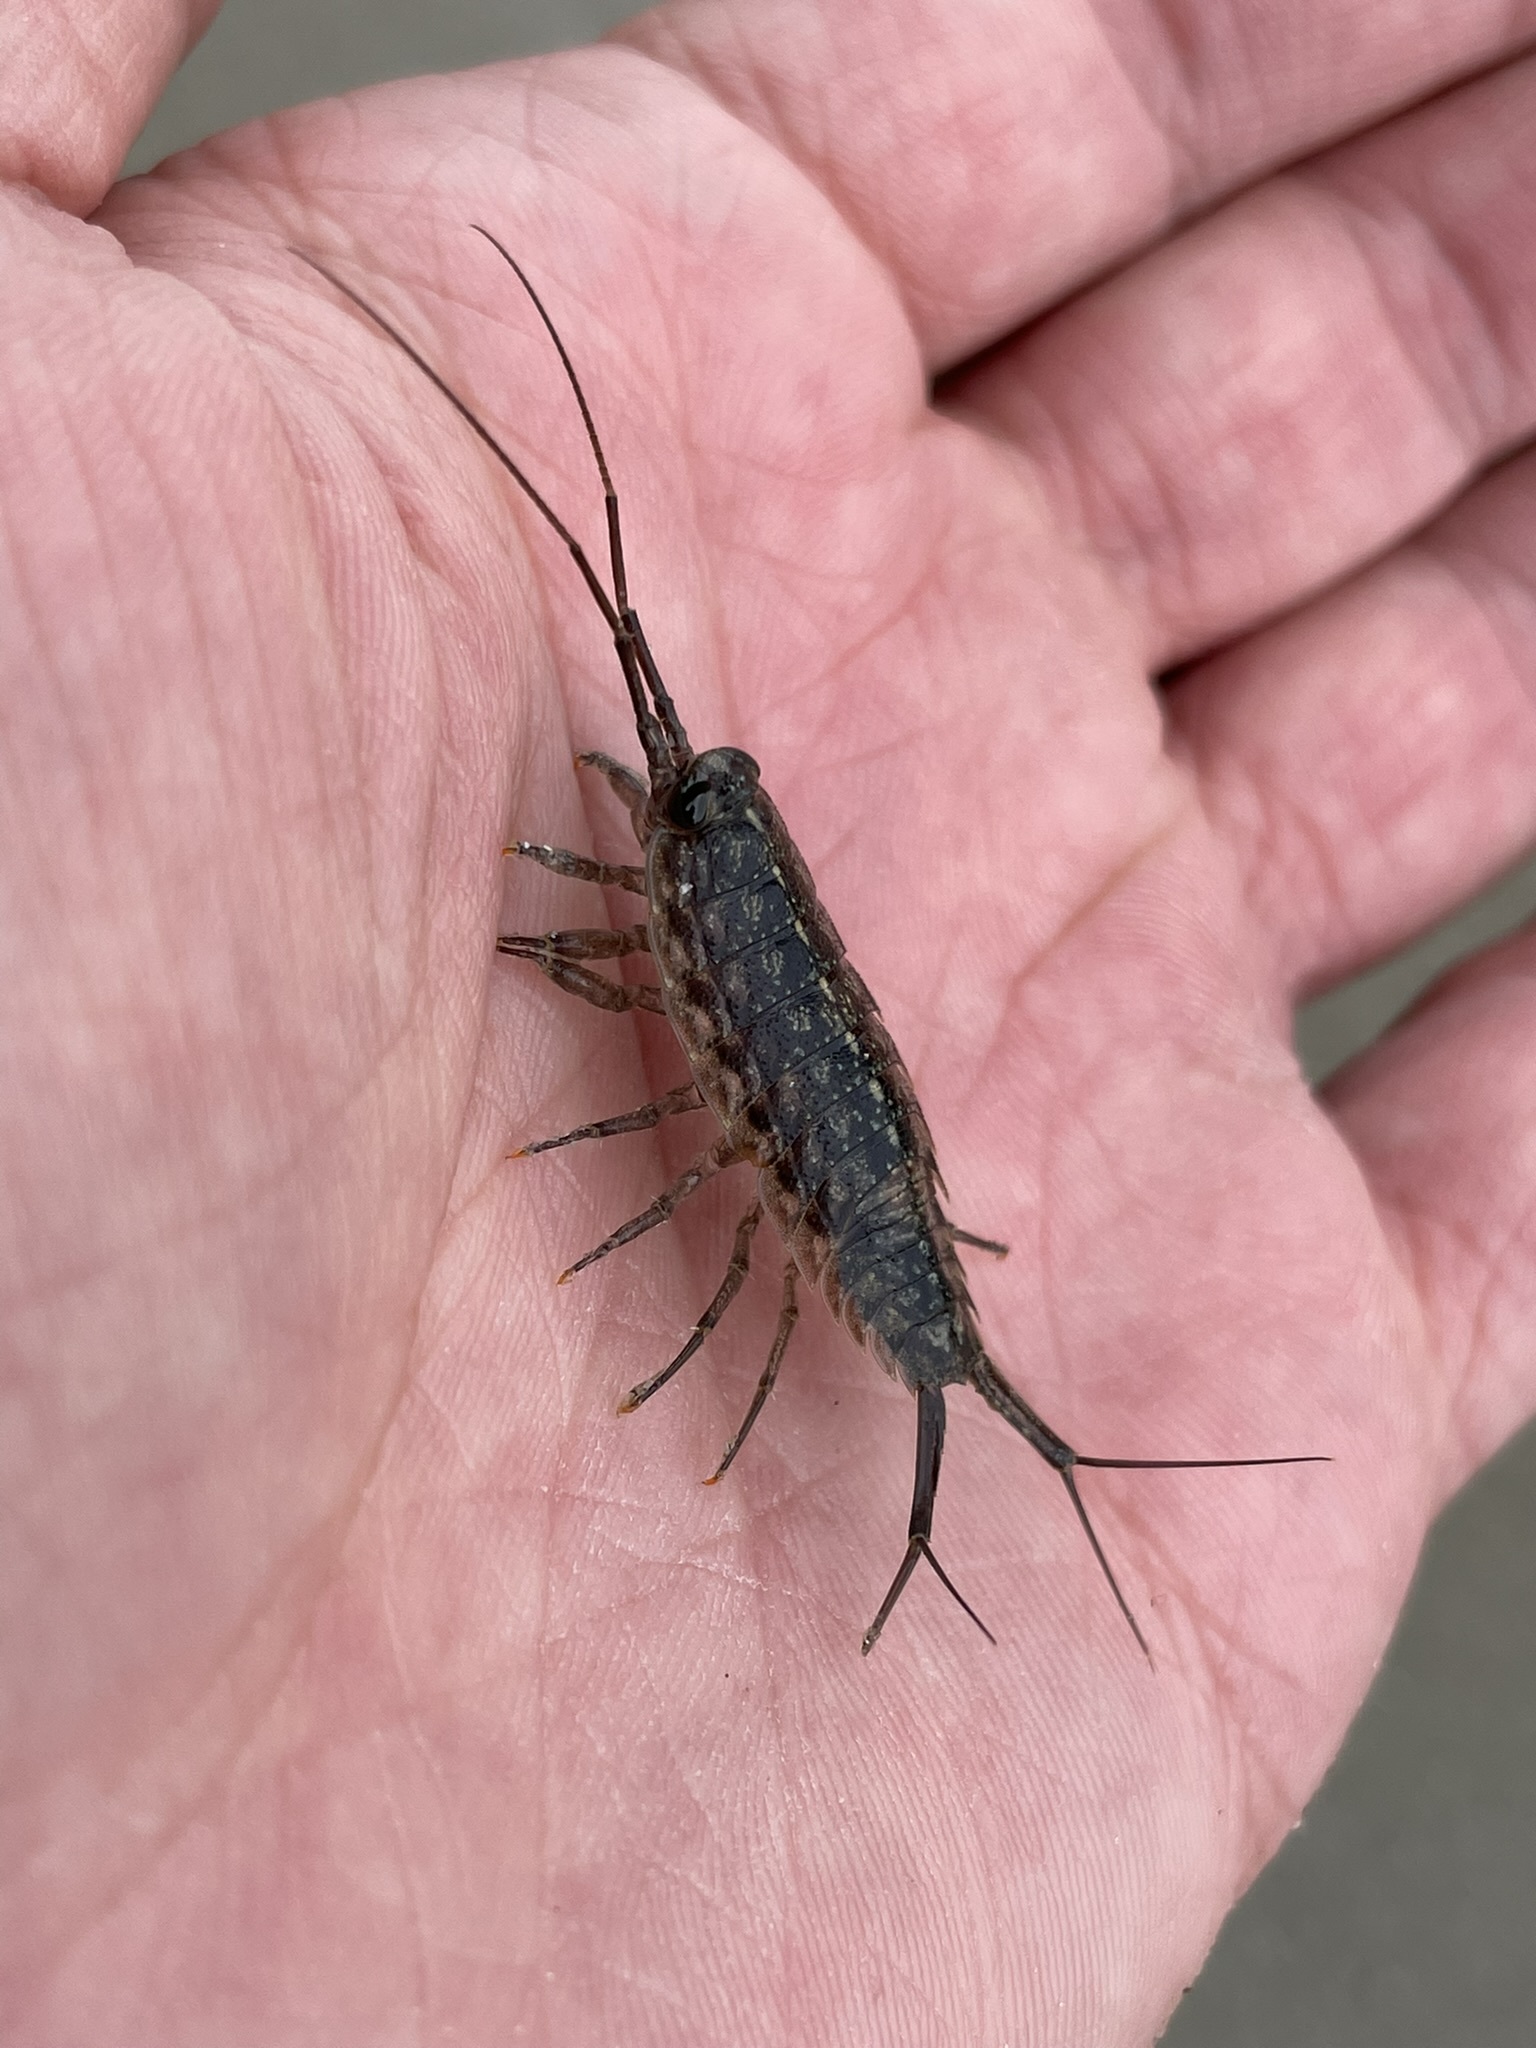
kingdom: Animalia
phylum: Arthropoda
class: Malacostraca
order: Isopoda
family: Ligiidae
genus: Ligia
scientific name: Ligia exotica
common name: Wharf roach
